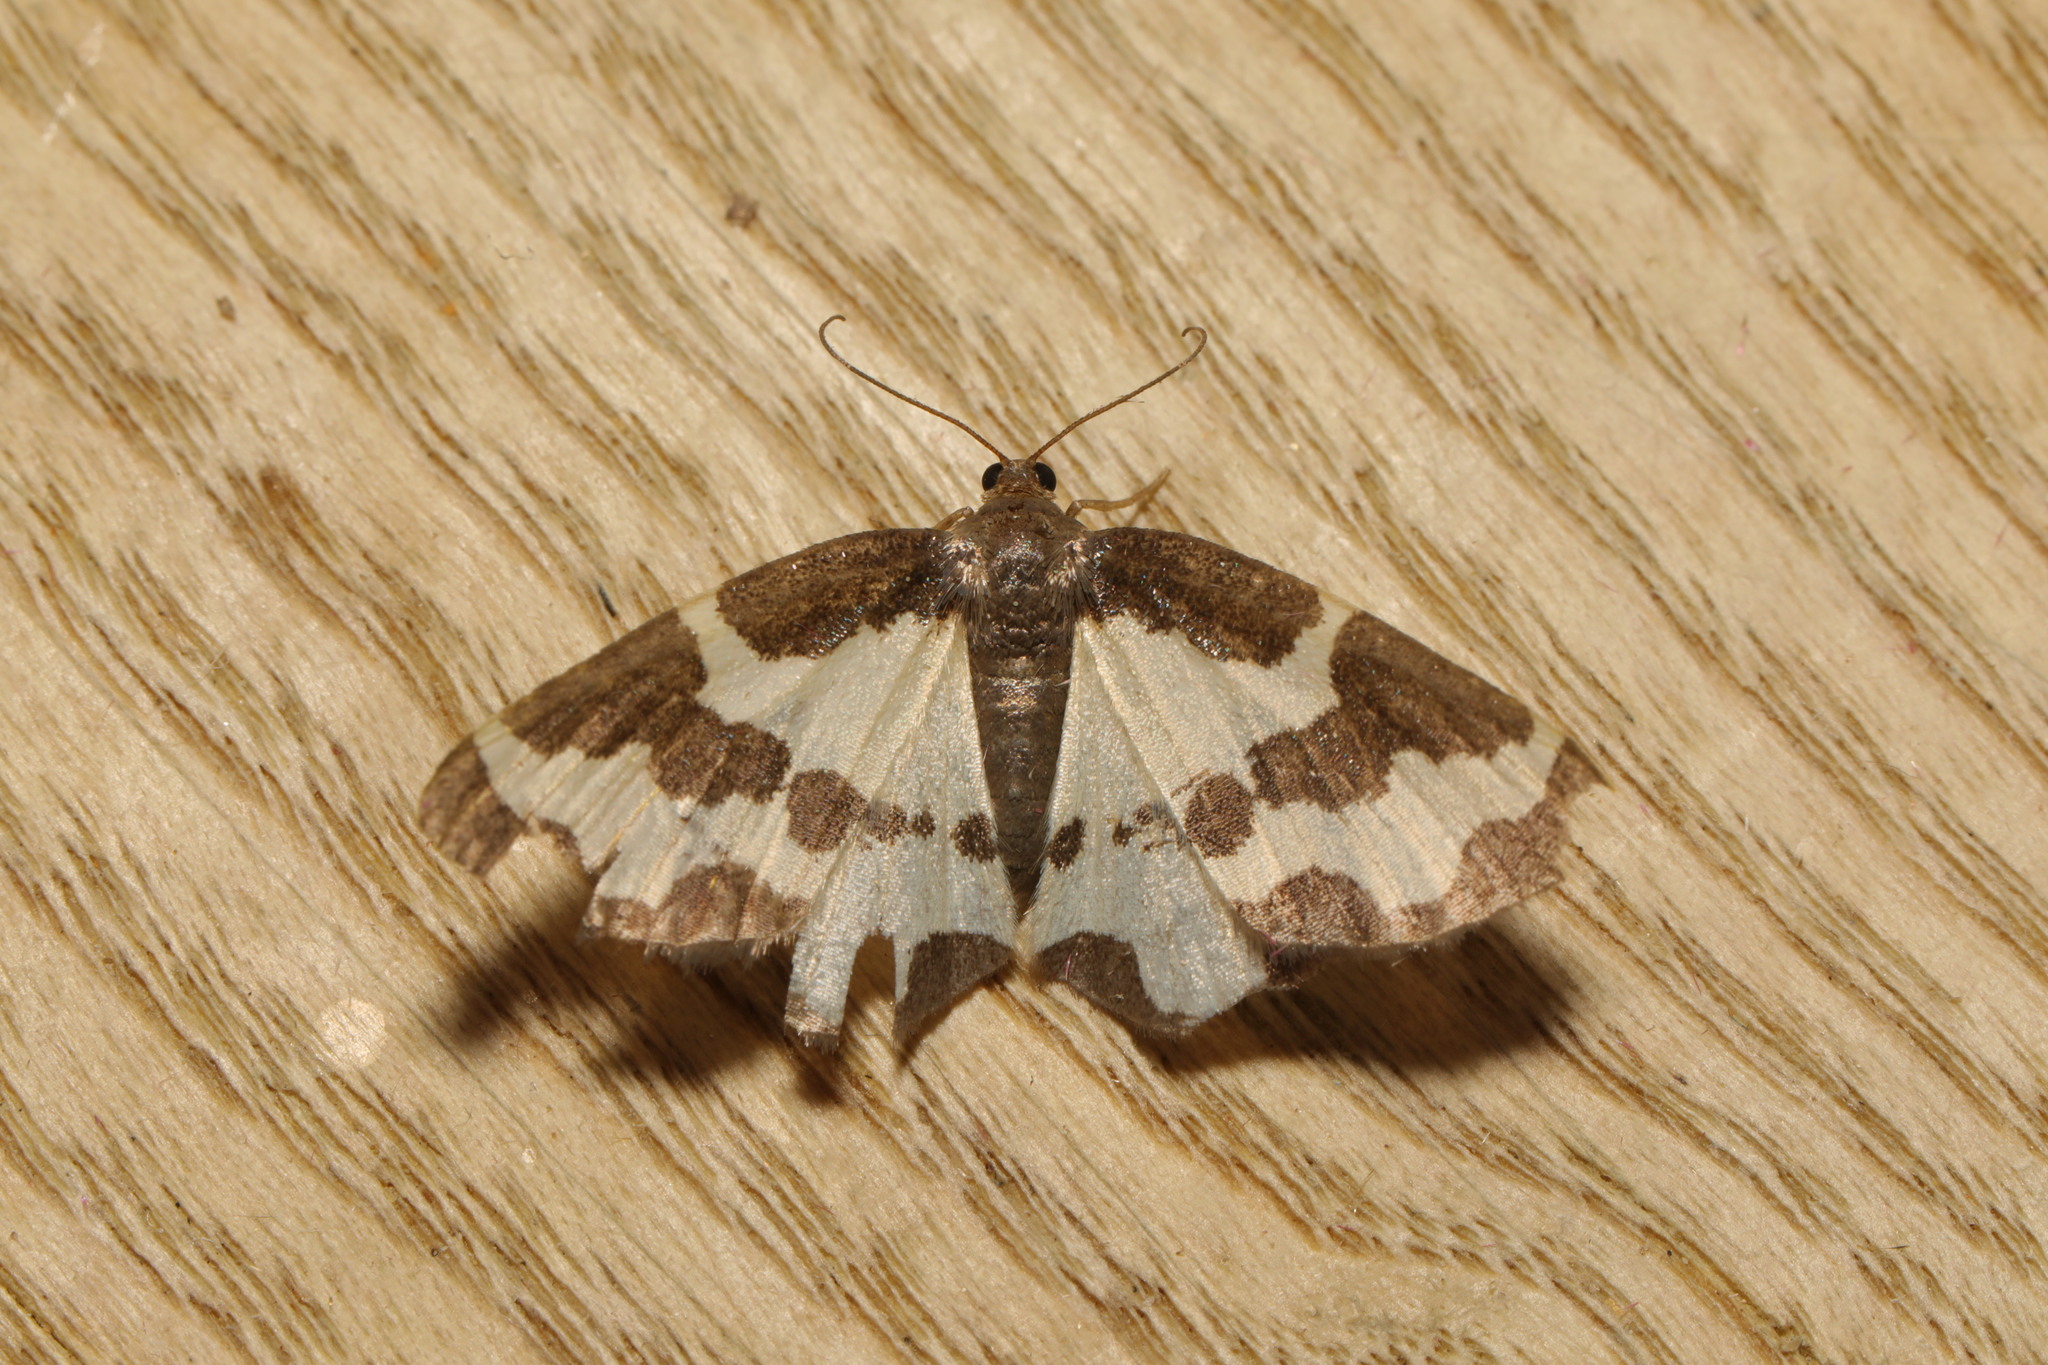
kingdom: Animalia
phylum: Arthropoda
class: Insecta
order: Lepidoptera
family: Geometridae
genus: Lomaspilis
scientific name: Lomaspilis marginata
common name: Clouded border
